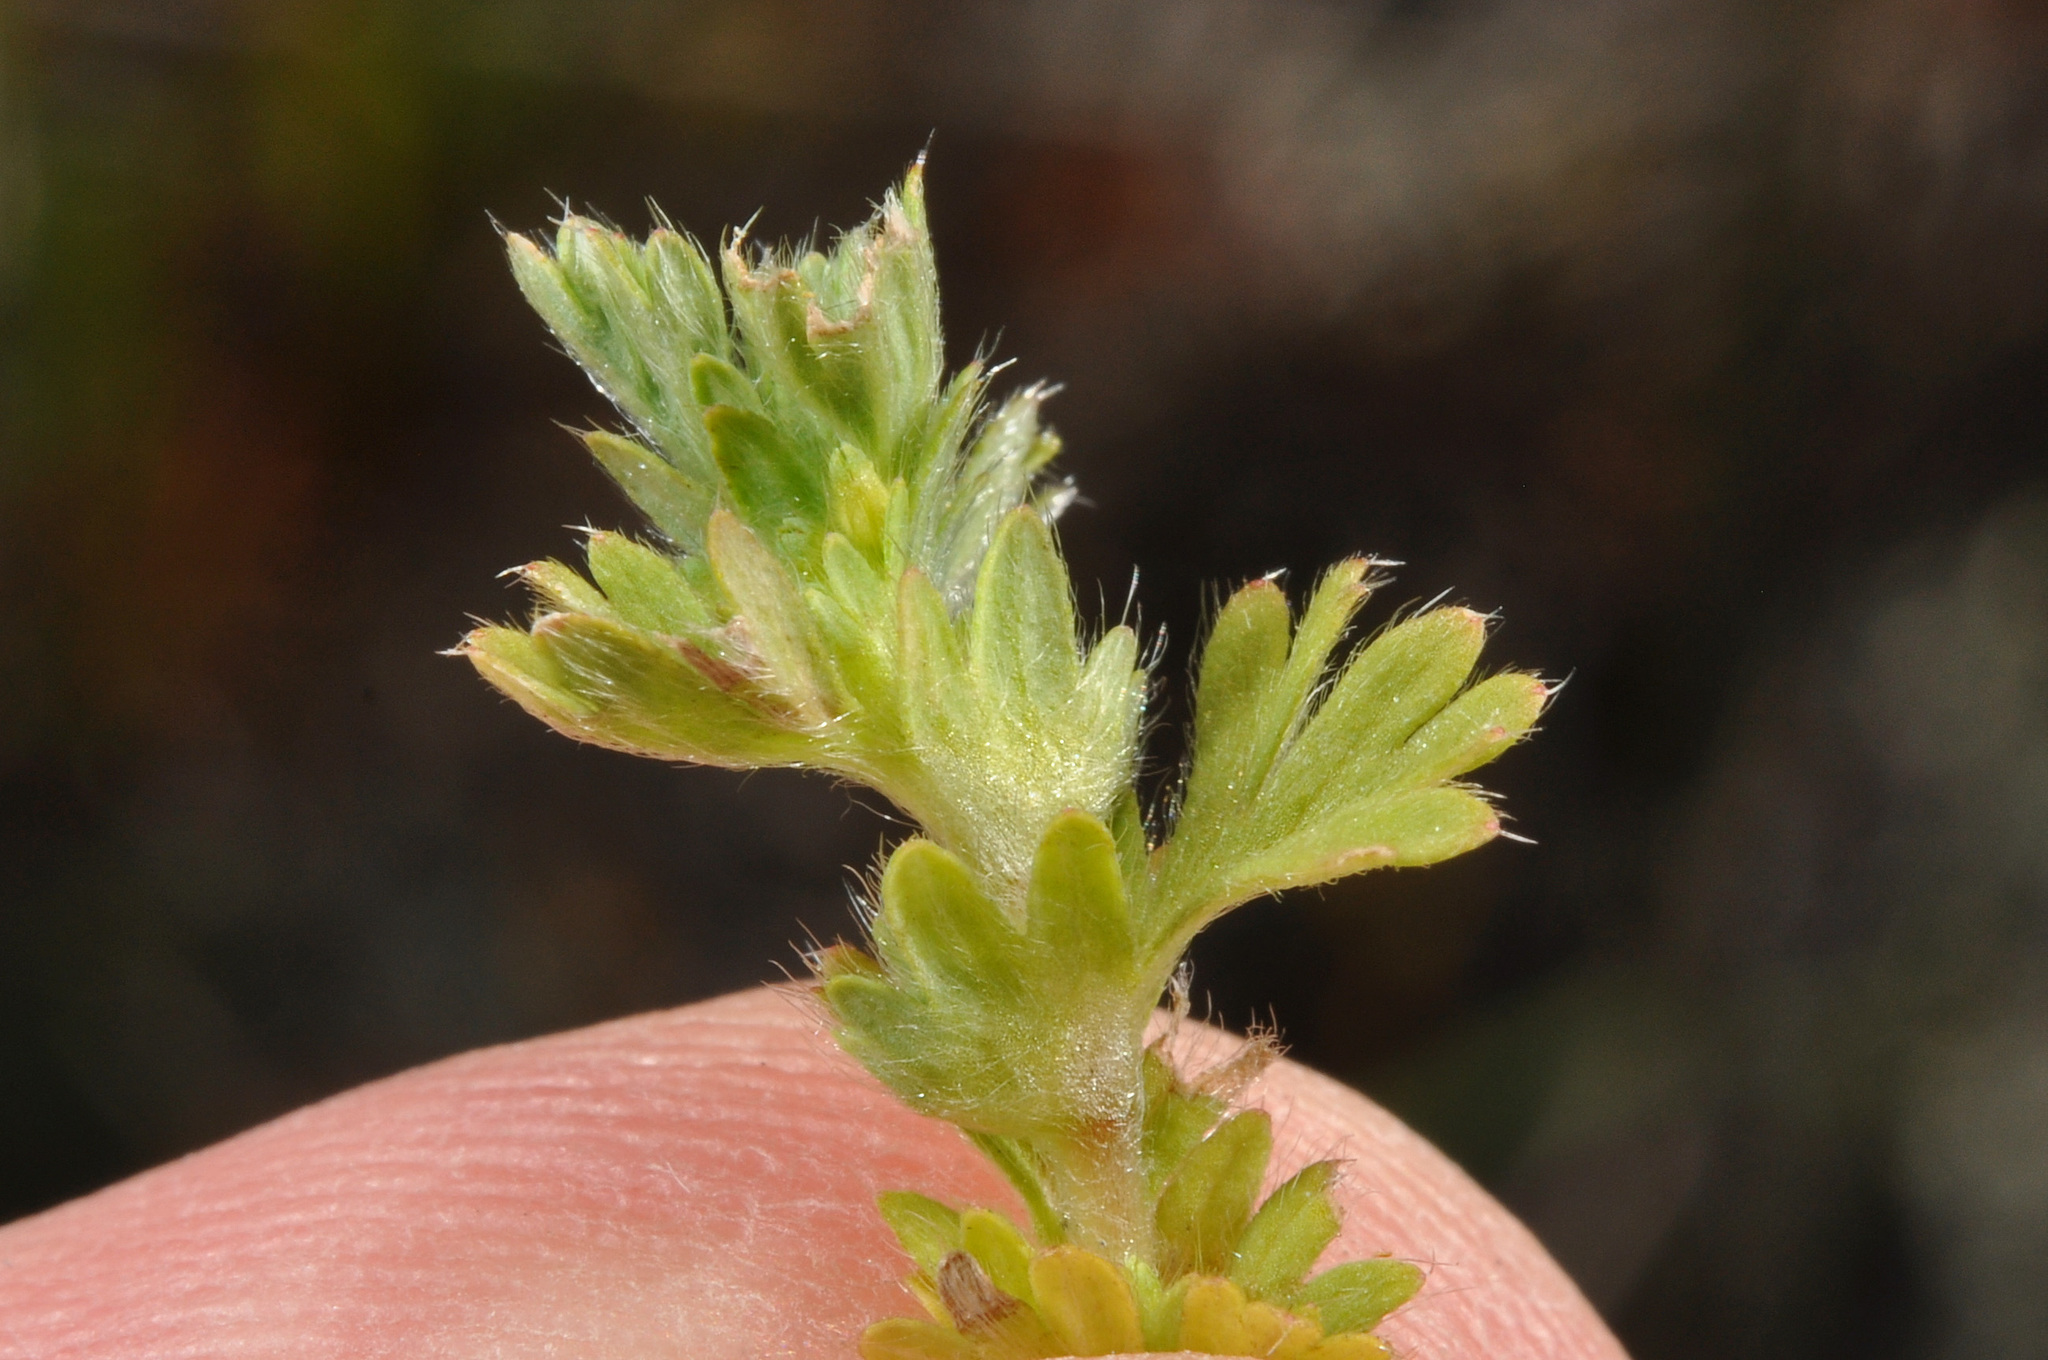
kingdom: Plantae
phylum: Tracheophyta
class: Magnoliopsida
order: Rosales
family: Rosaceae
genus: Aphanes
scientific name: Aphanes australis
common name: Slender parsley-piert
